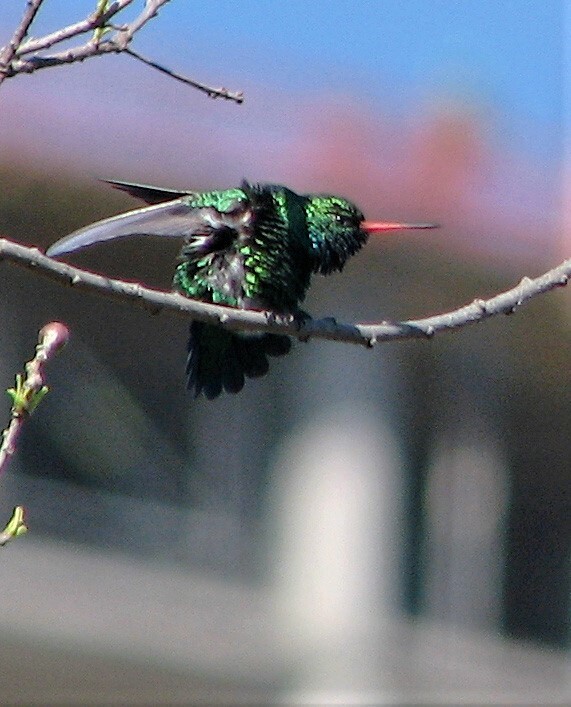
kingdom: Animalia
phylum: Chordata
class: Aves
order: Apodiformes
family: Trochilidae
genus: Chlorostilbon
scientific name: Chlorostilbon lucidus
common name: Glittering-bellied emerald
